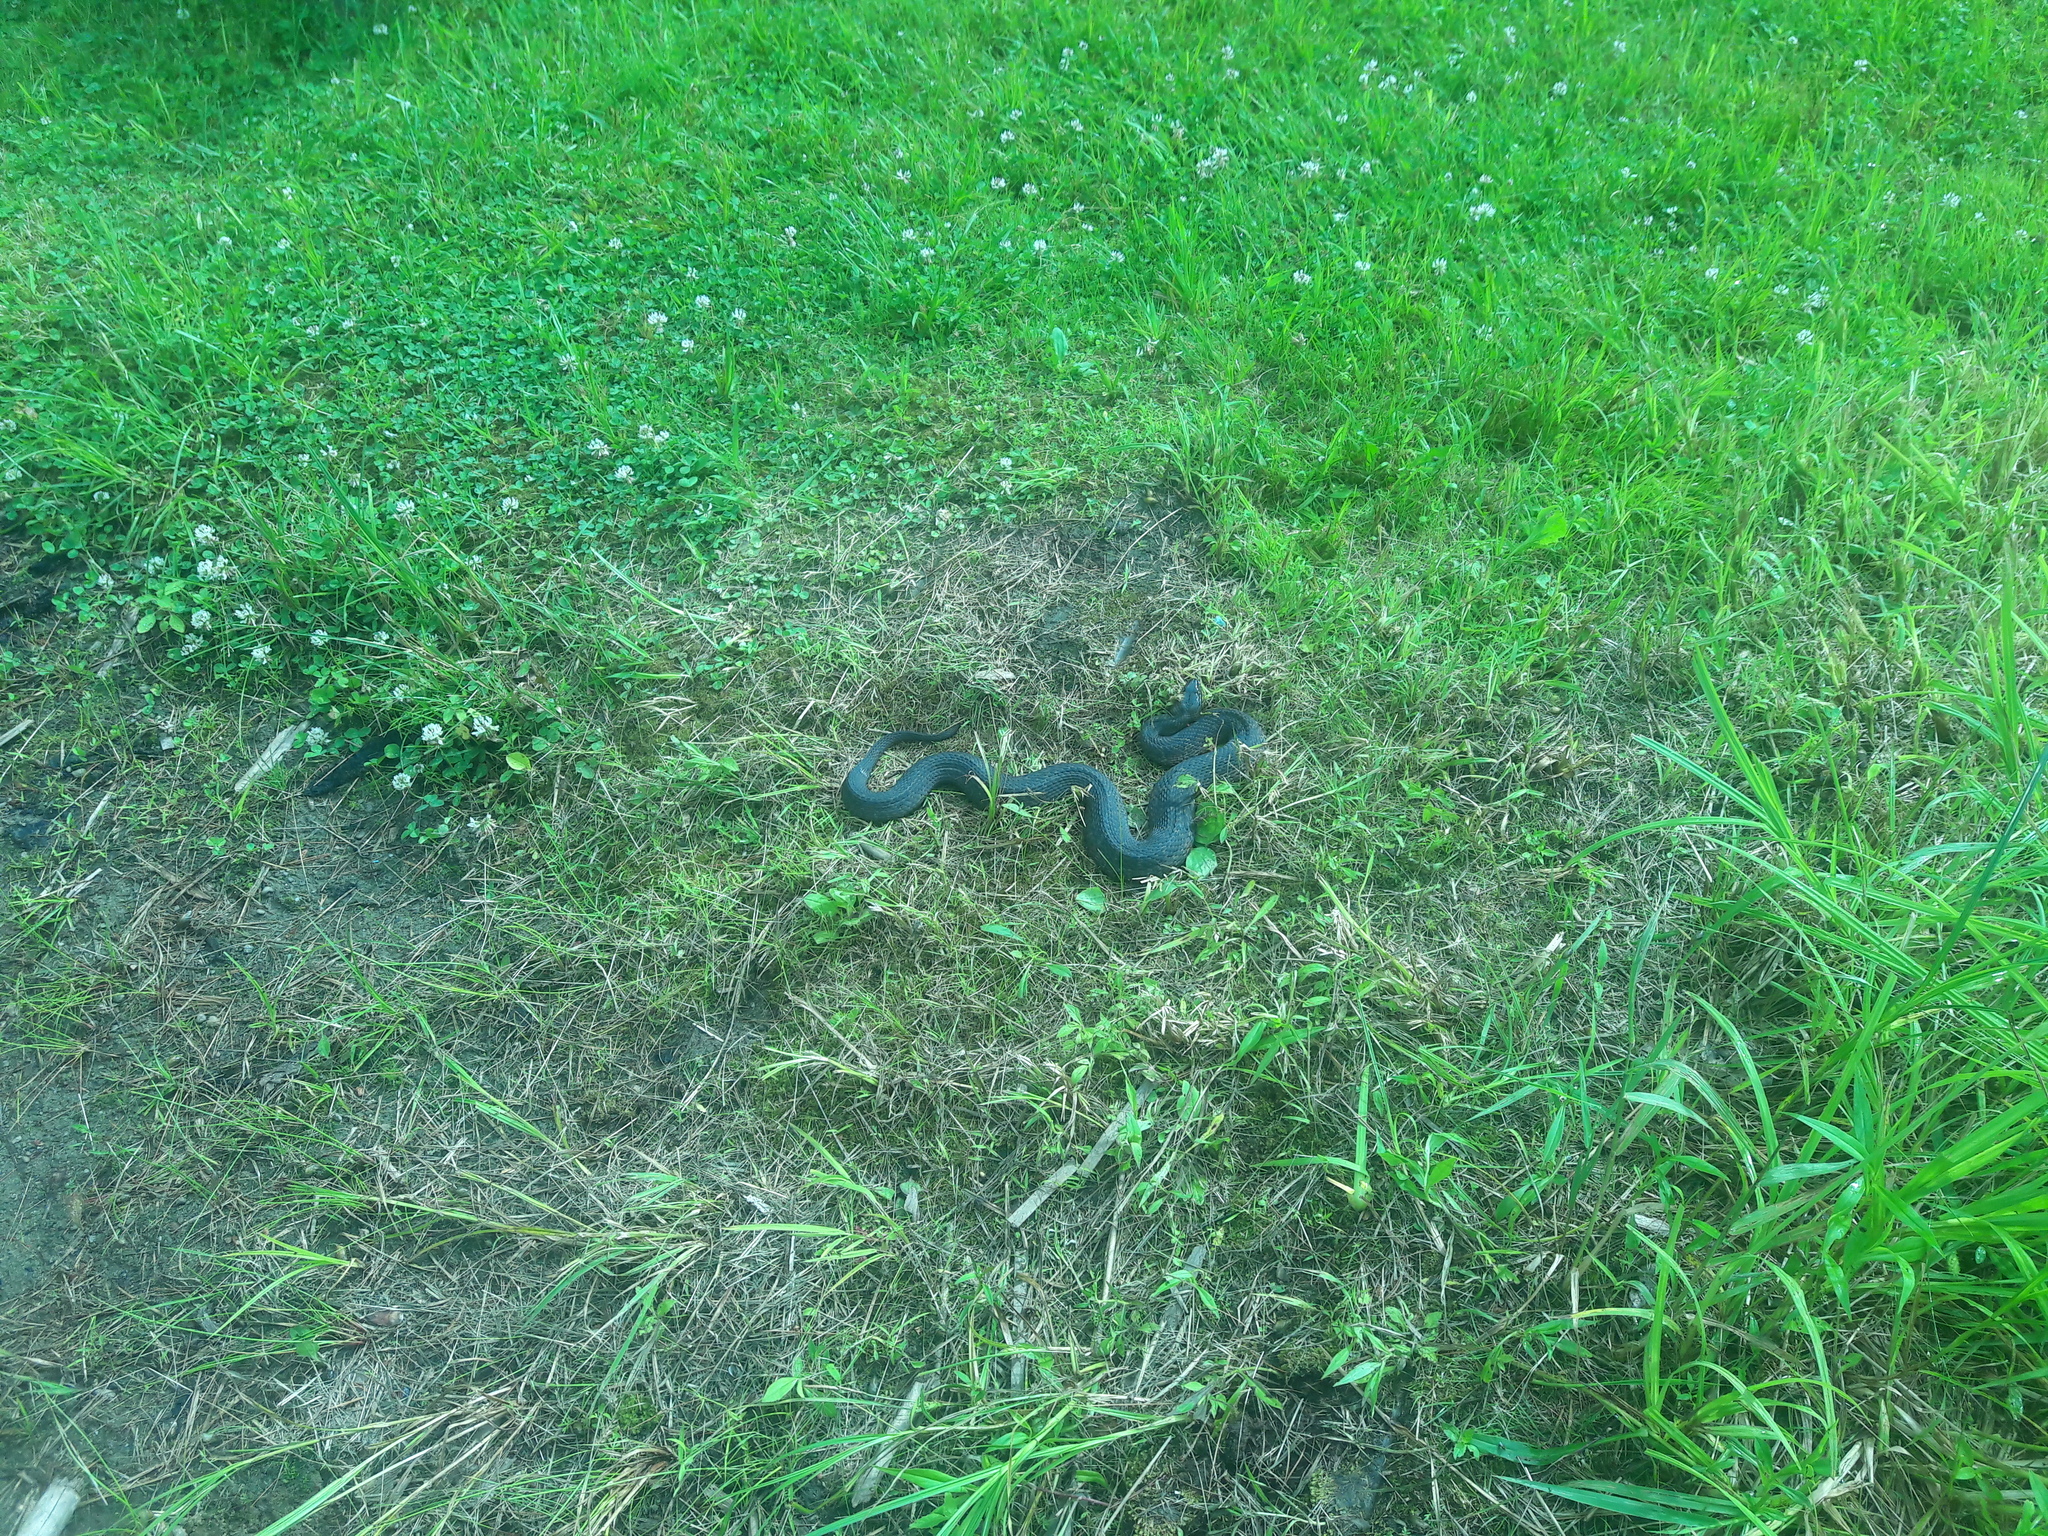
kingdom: Animalia
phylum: Chordata
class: Squamata
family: Colubridae
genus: Nerodia
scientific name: Nerodia sipedon
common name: Northern water snake
